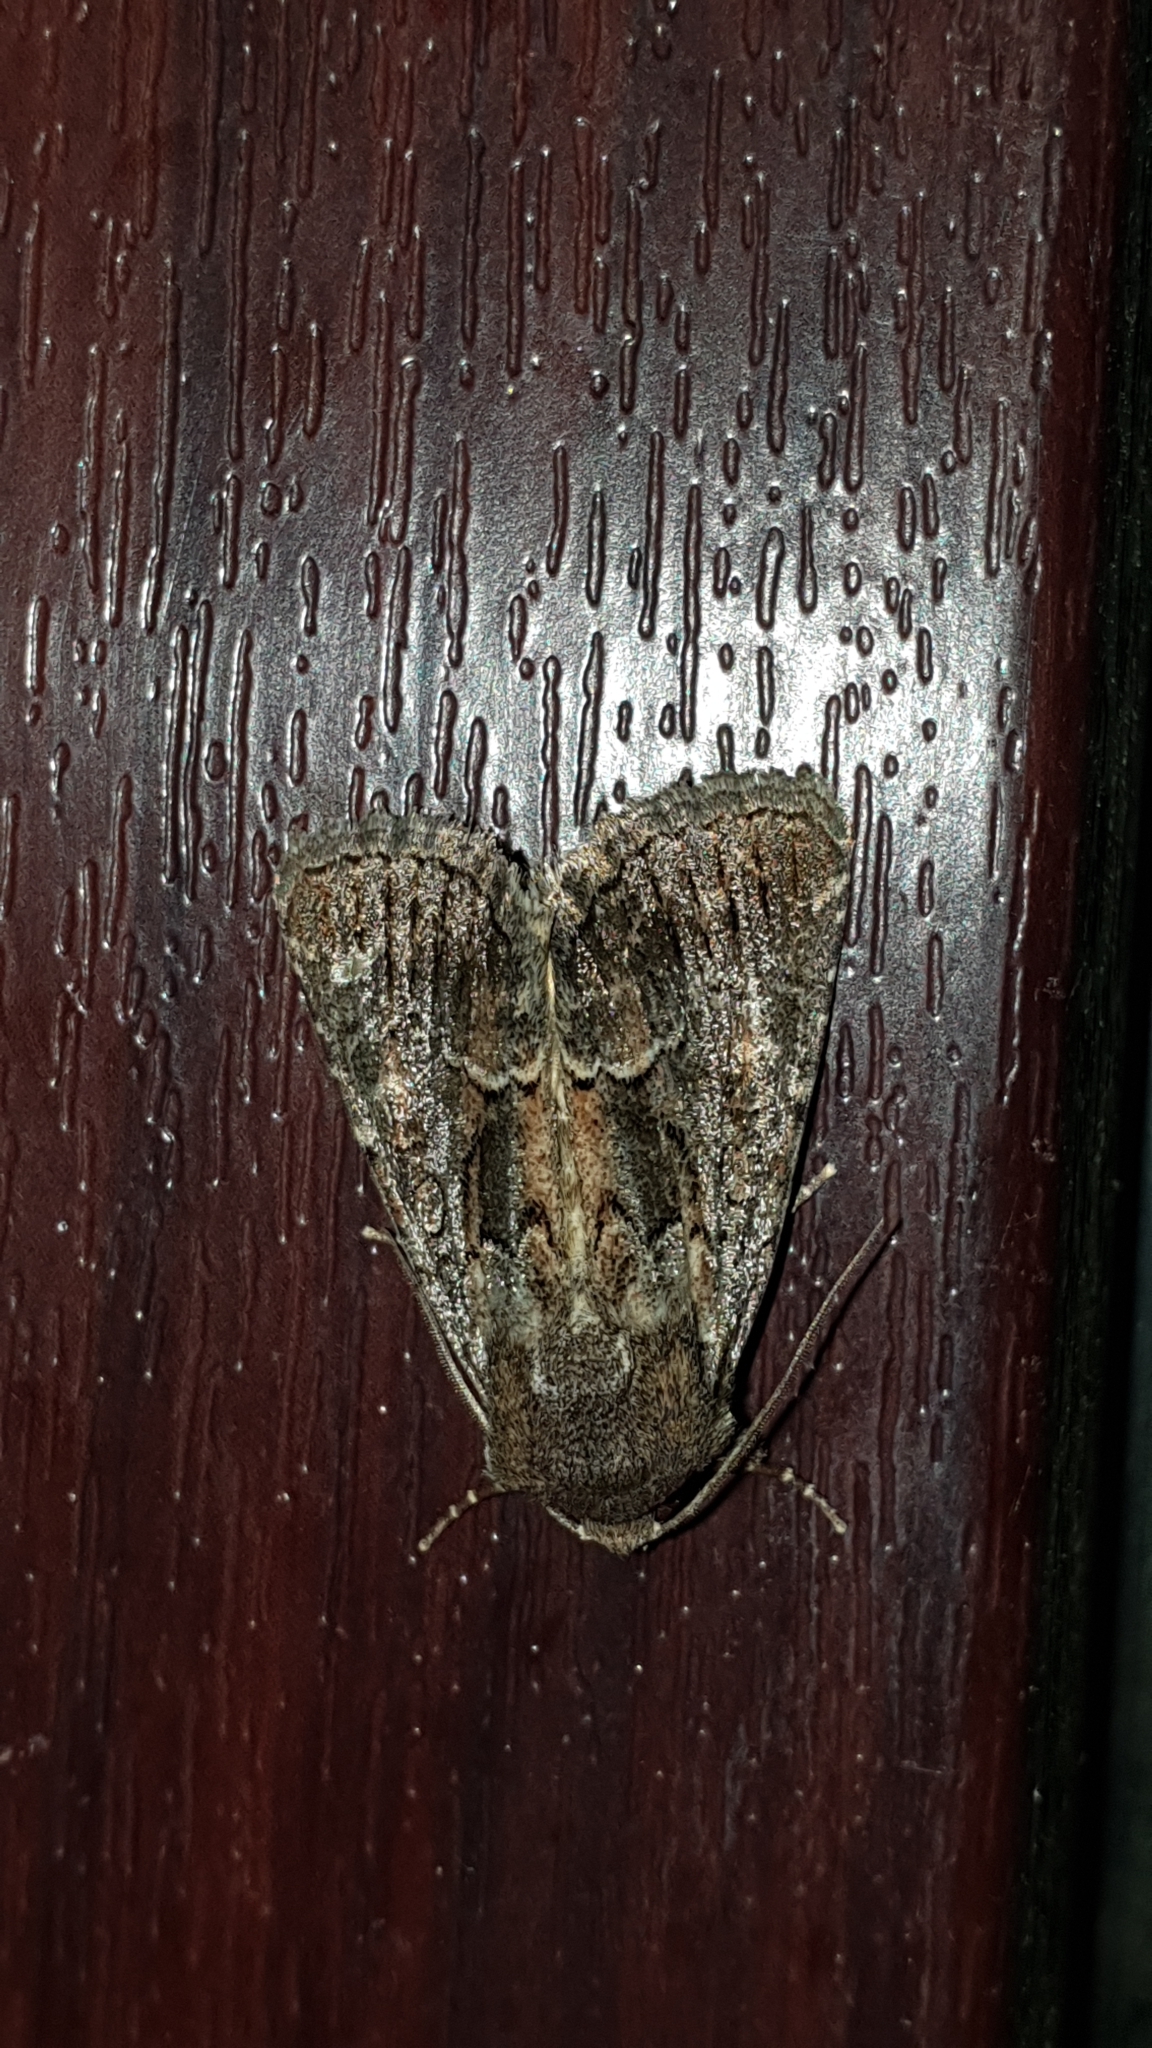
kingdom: Animalia
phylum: Arthropoda
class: Insecta
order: Lepidoptera
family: Noctuidae
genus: Thalpophila
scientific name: Thalpophila matura
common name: Straw underwing
